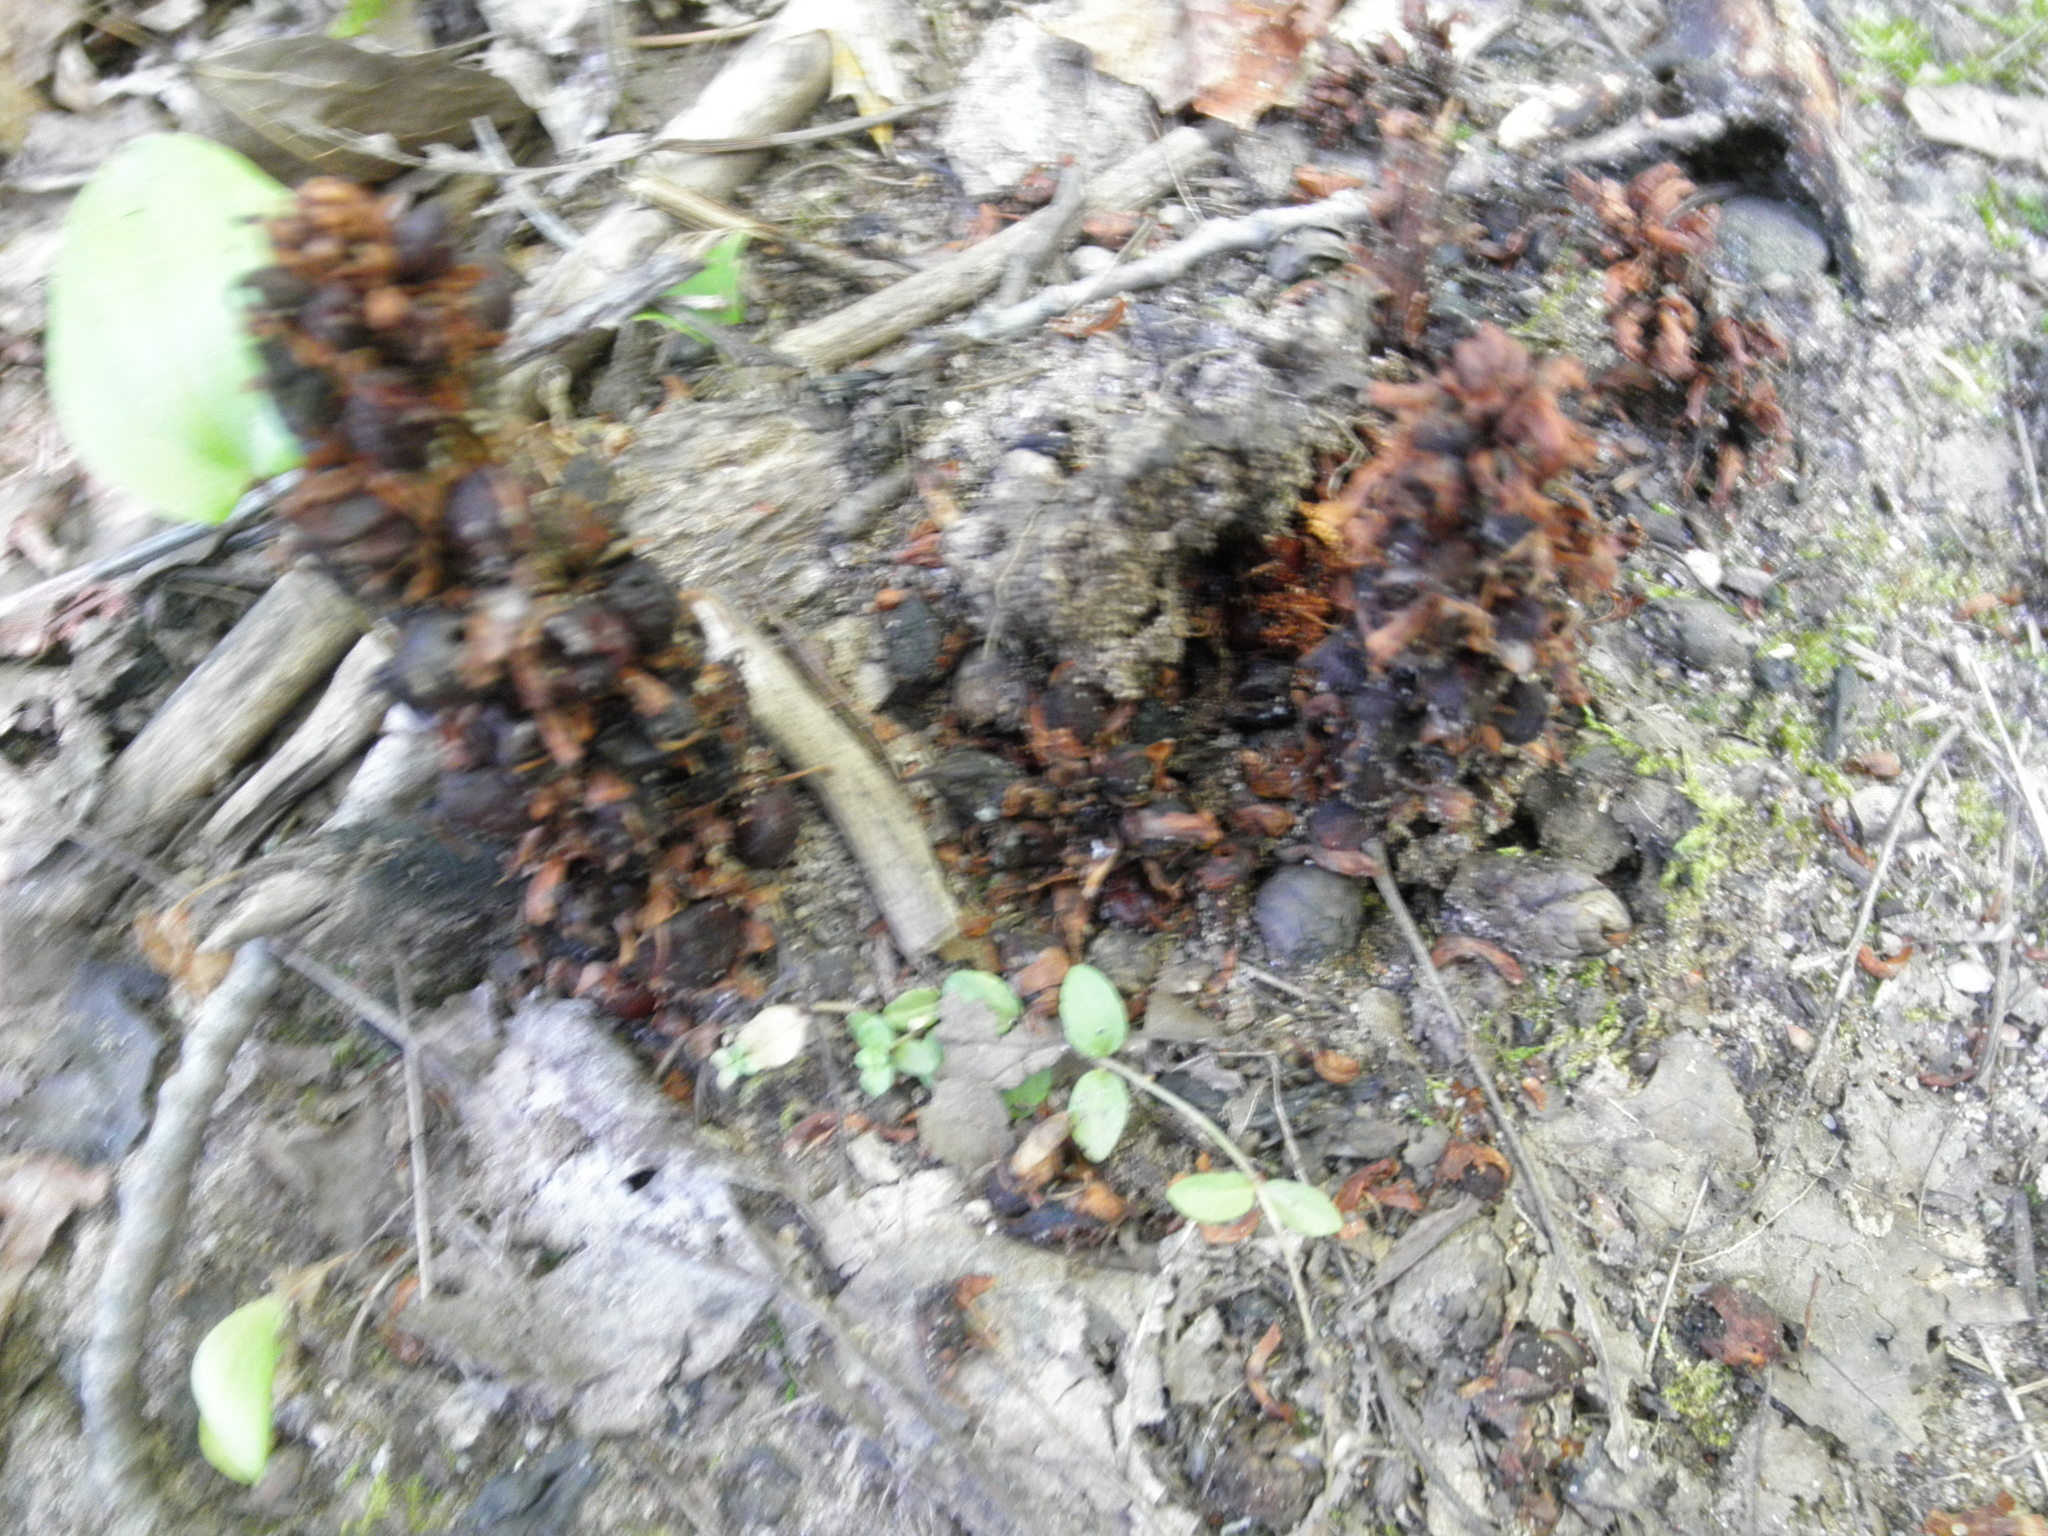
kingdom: Plantae
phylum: Tracheophyta
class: Magnoliopsida
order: Lamiales
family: Orobanchaceae
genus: Conopholis
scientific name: Conopholis americana
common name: American cancer-root
